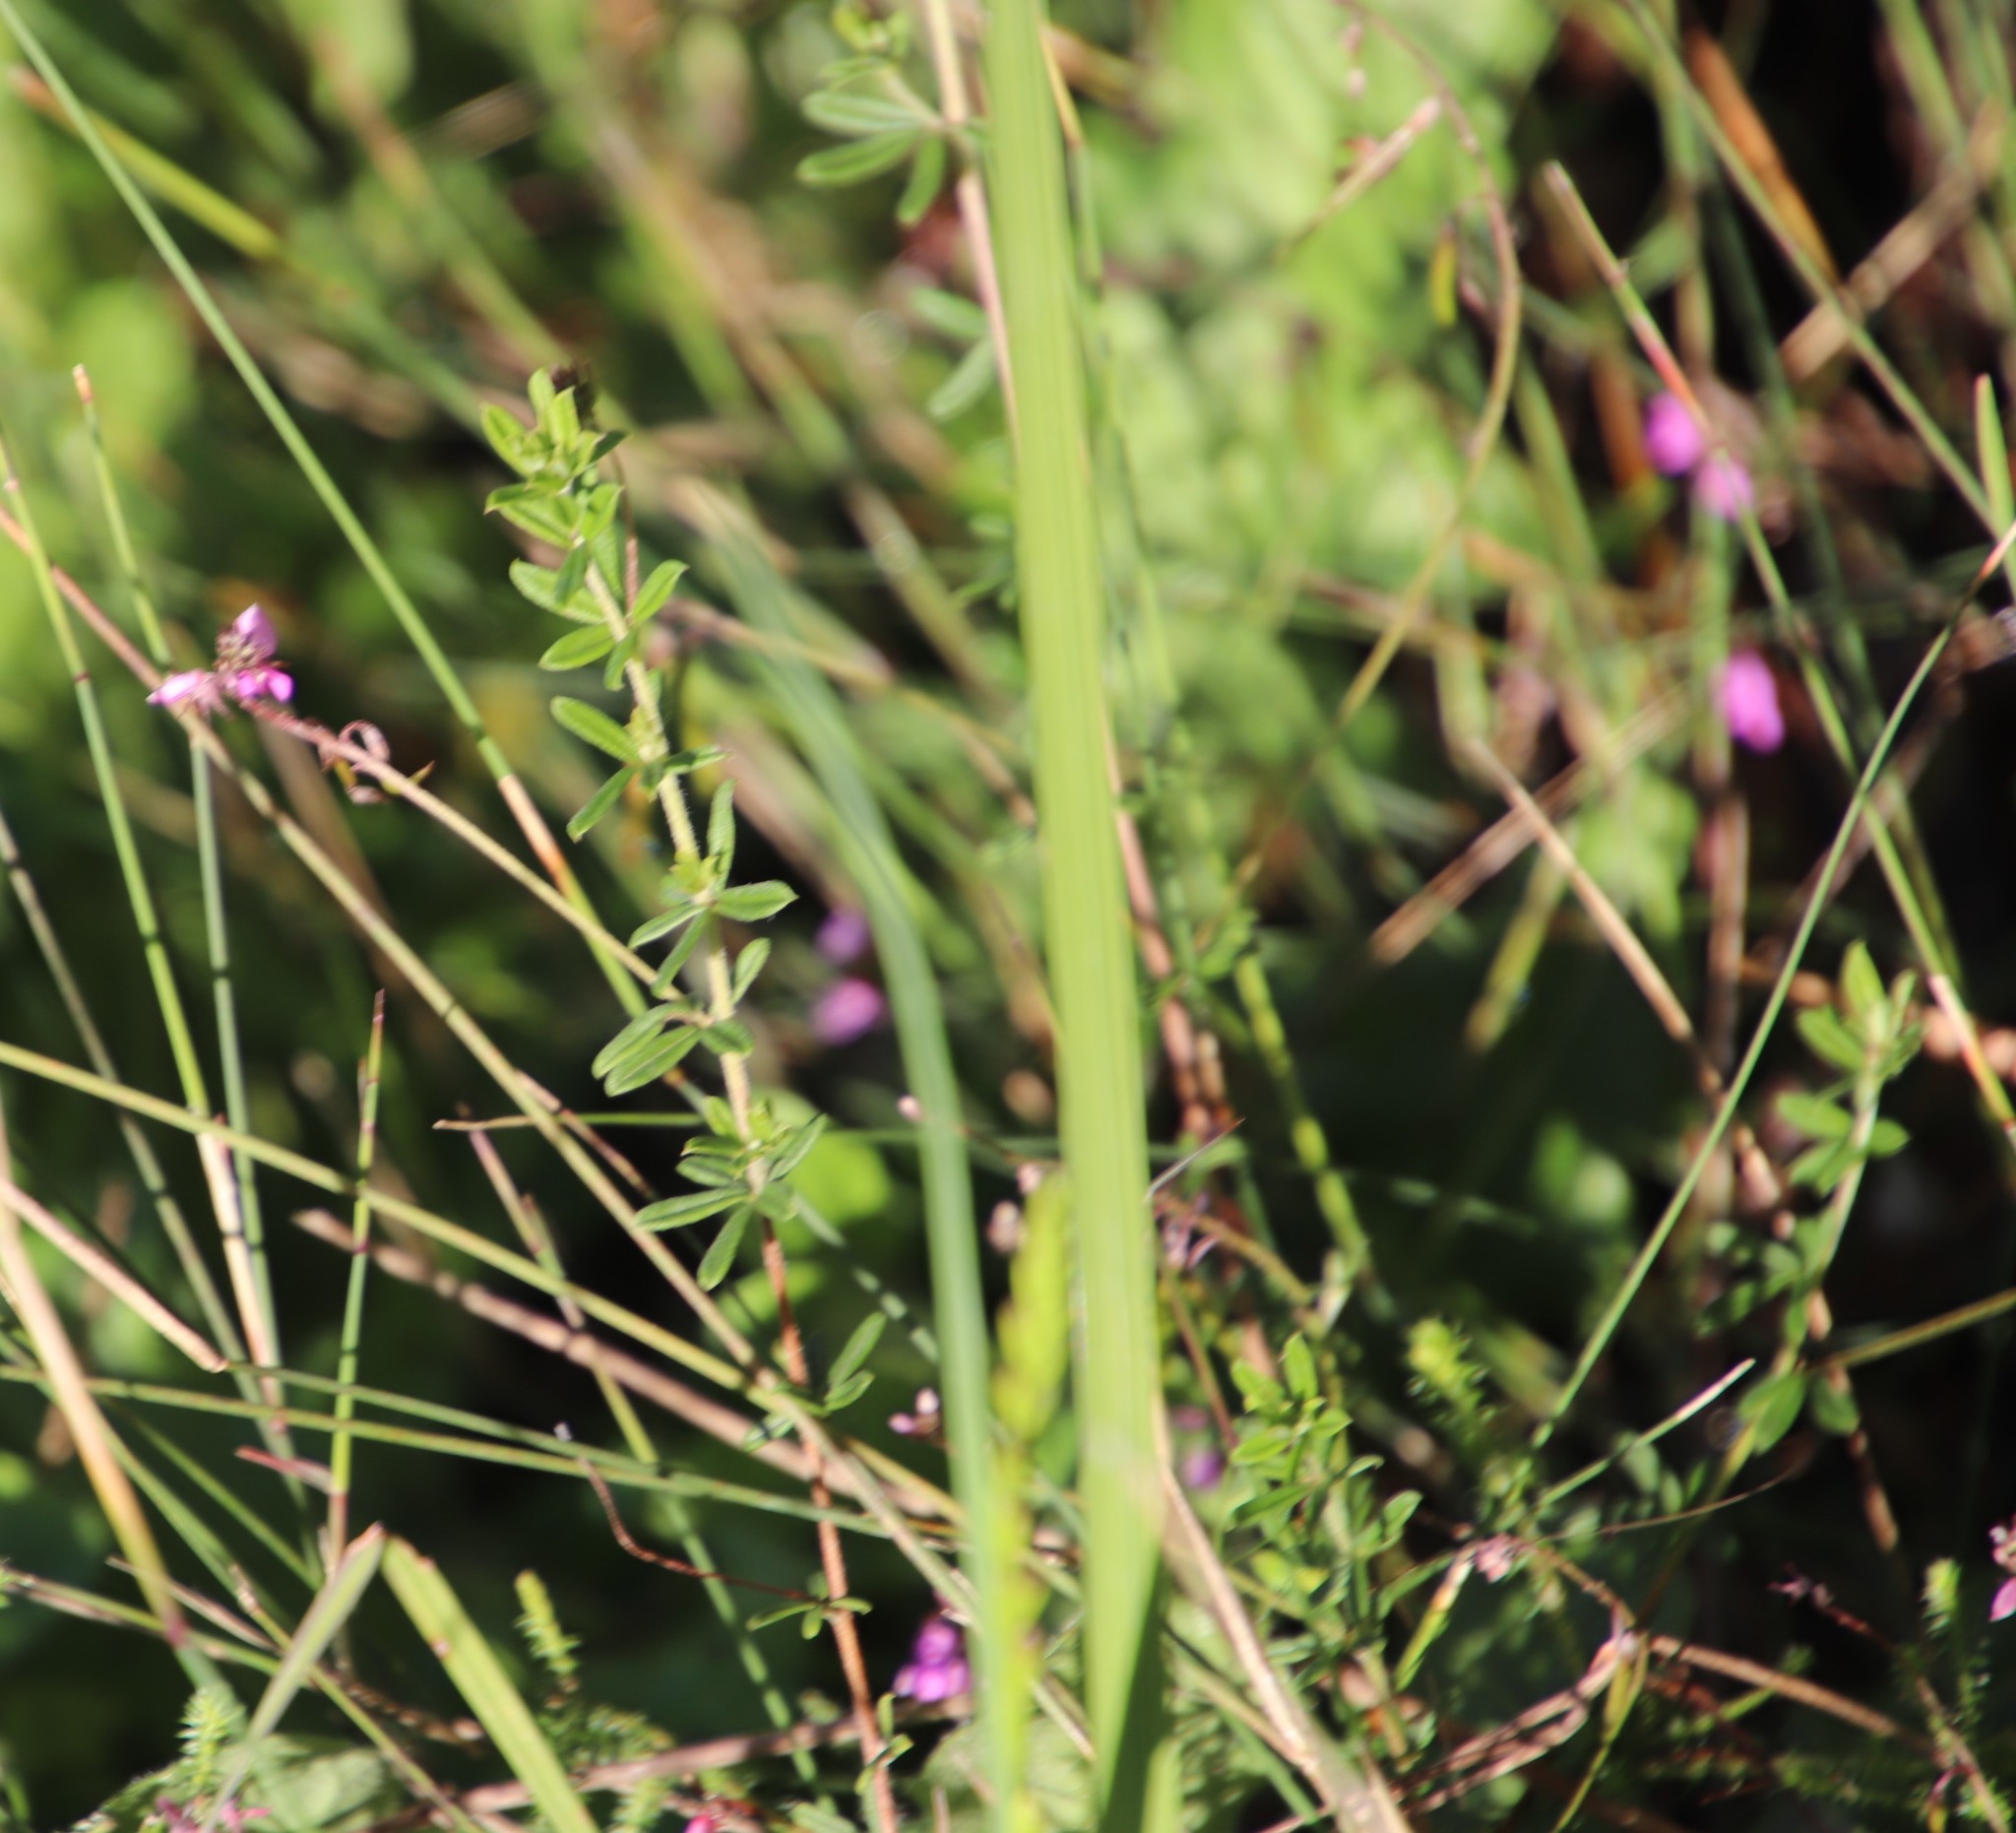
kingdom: Plantae
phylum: Tracheophyta
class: Magnoliopsida
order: Fabales
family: Fabaceae
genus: Indigofera
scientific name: Indigofera filiformis
